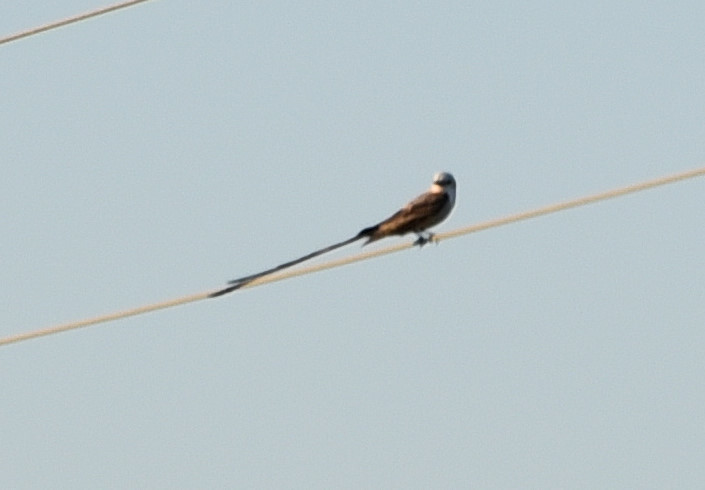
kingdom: Animalia
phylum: Chordata
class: Aves
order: Passeriformes
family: Tyrannidae
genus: Tyrannus
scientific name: Tyrannus forficatus
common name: Scissor-tailed flycatcher
